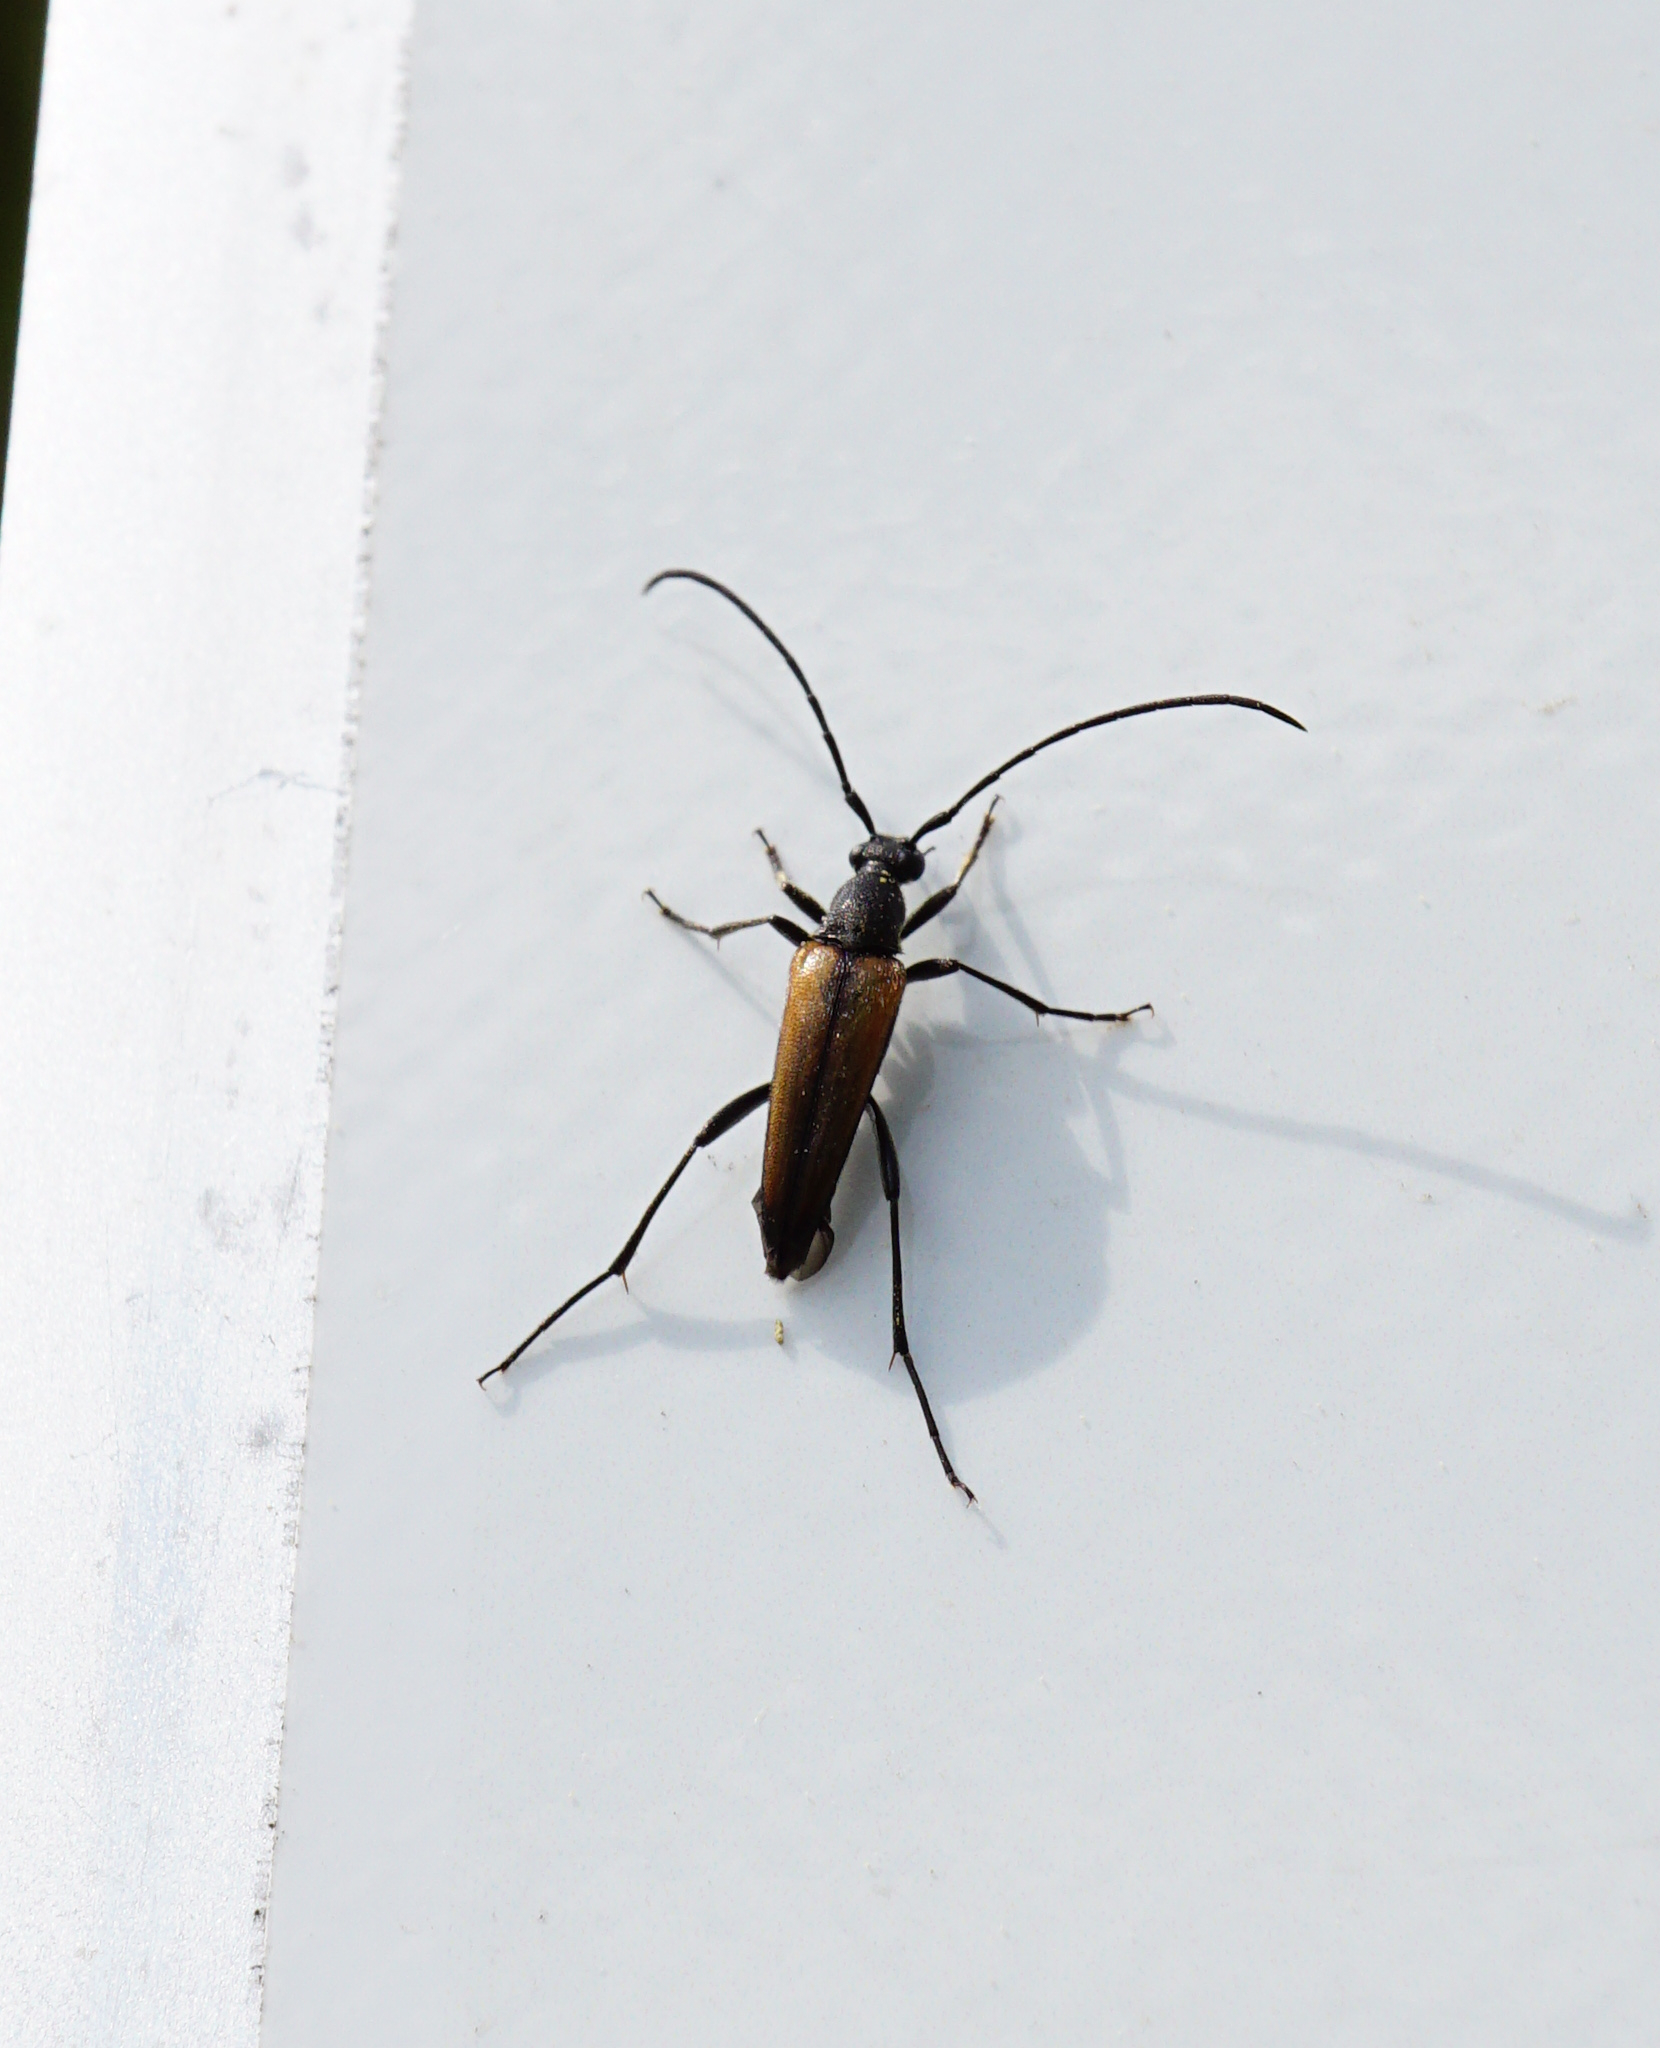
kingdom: Animalia
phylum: Arthropoda
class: Insecta
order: Coleoptera
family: Cerambycidae
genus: Stenurella
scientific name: Stenurella melanura
